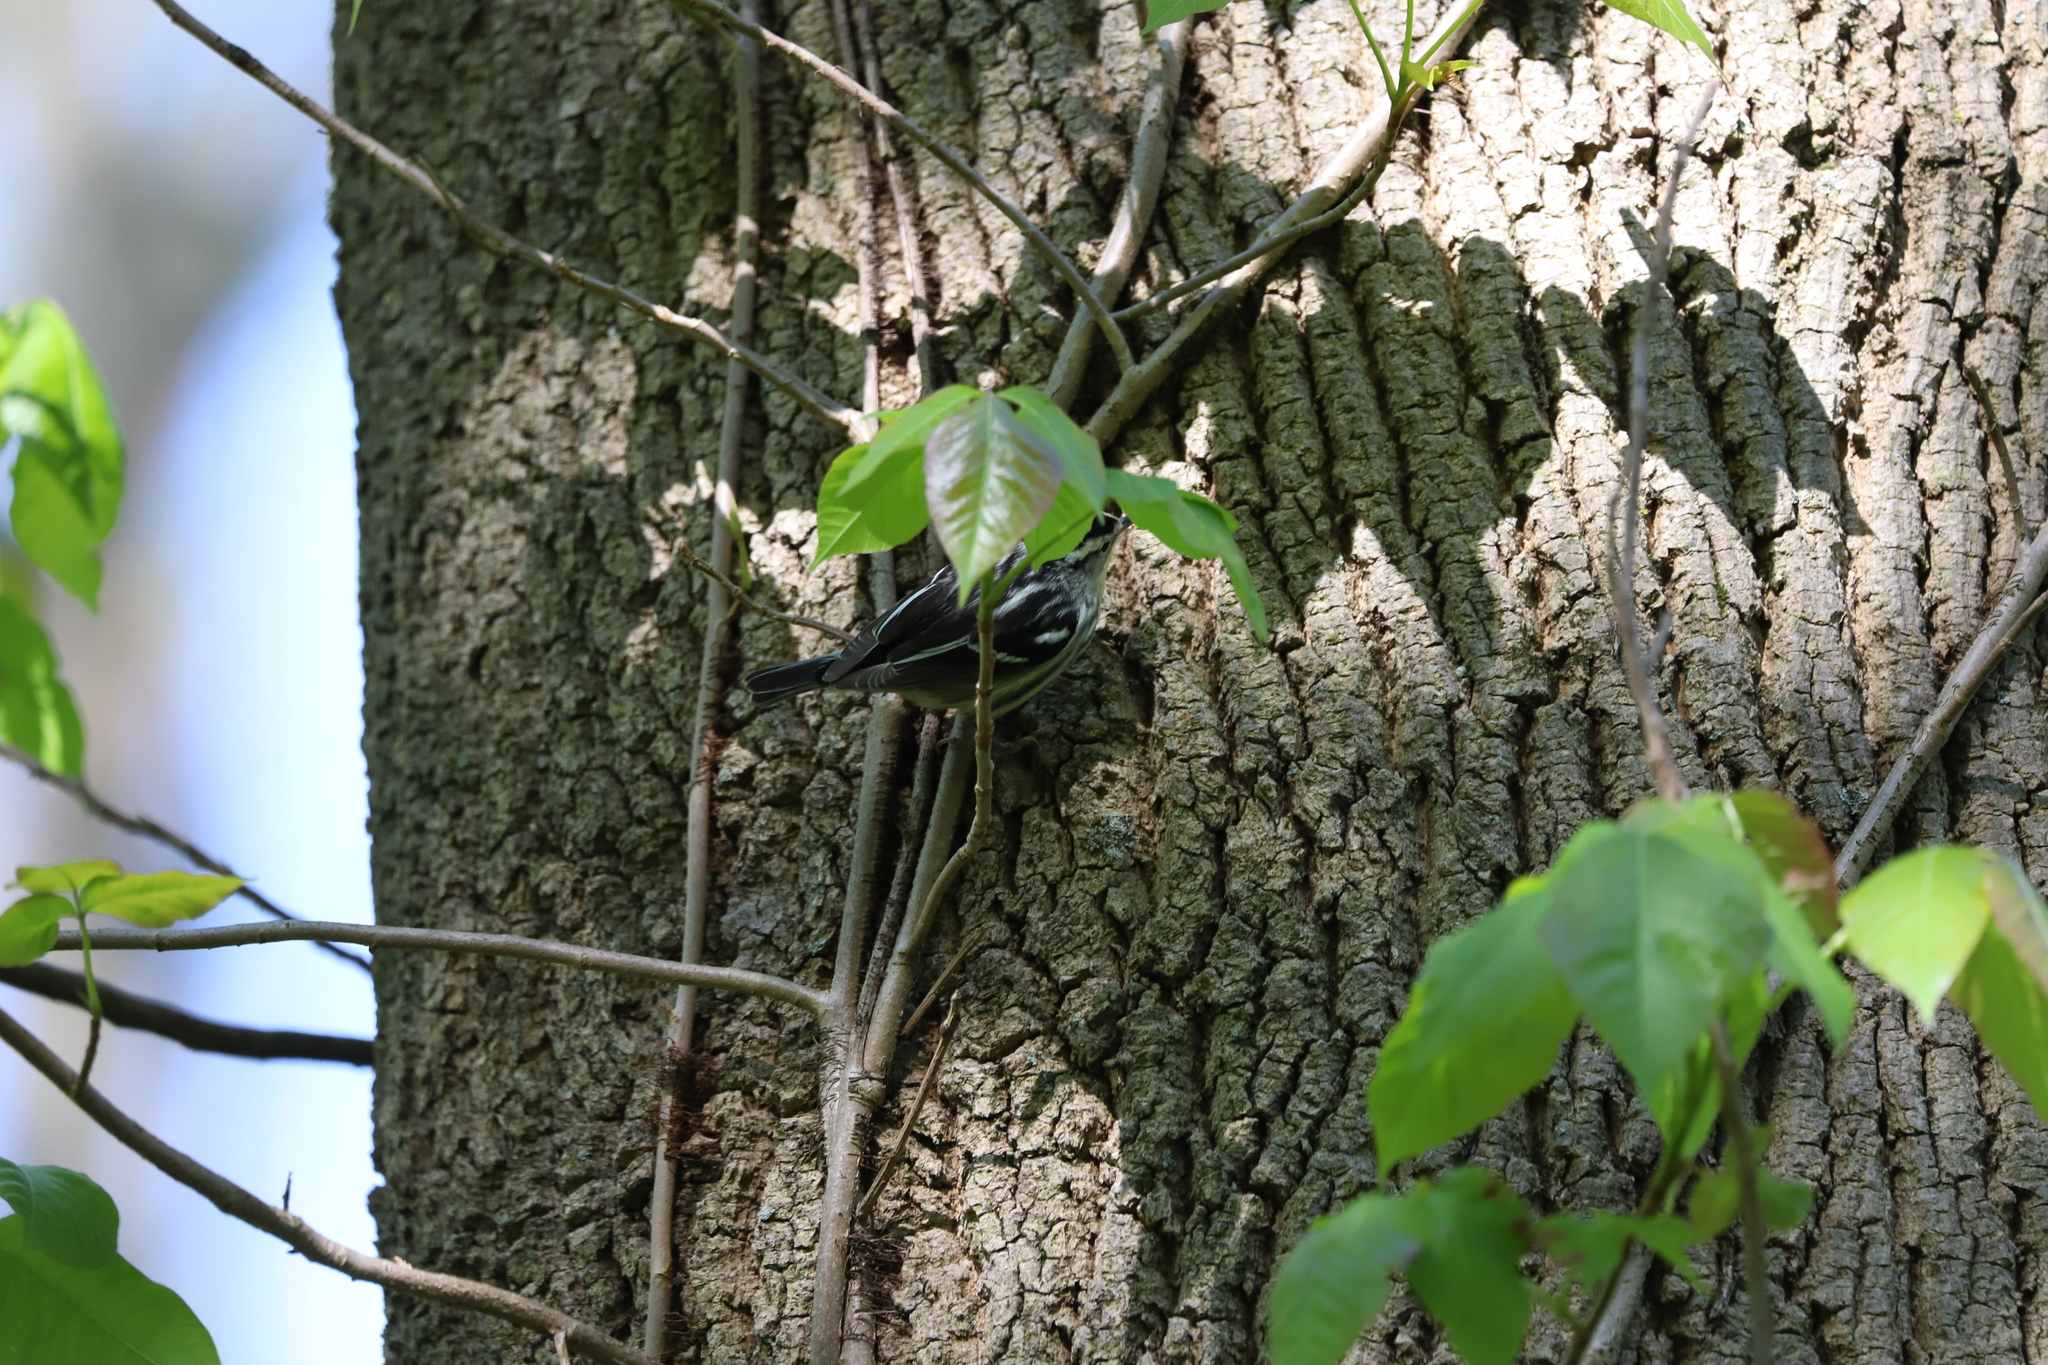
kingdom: Plantae
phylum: Tracheophyta
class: Magnoliopsida
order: Sapindales
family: Anacardiaceae
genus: Toxicodendron
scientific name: Toxicodendron radicans
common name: Poison ivy
